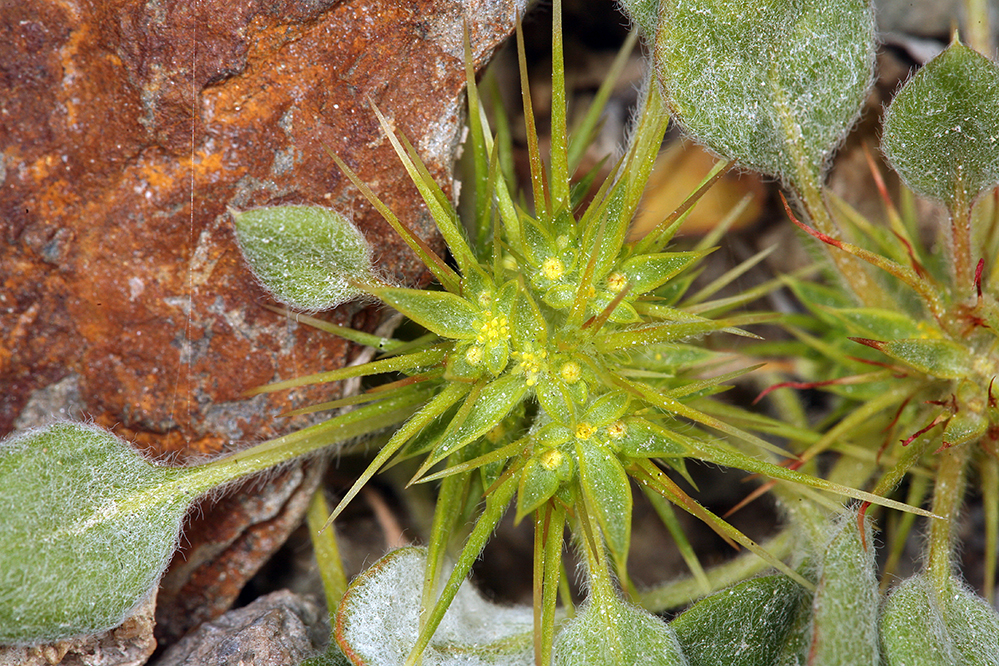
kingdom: Plantae
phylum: Tracheophyta
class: Magnoliopsida
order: Caryophyllales
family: Polygonaceae
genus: Chorizanthe
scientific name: Chorizanthe rigida
